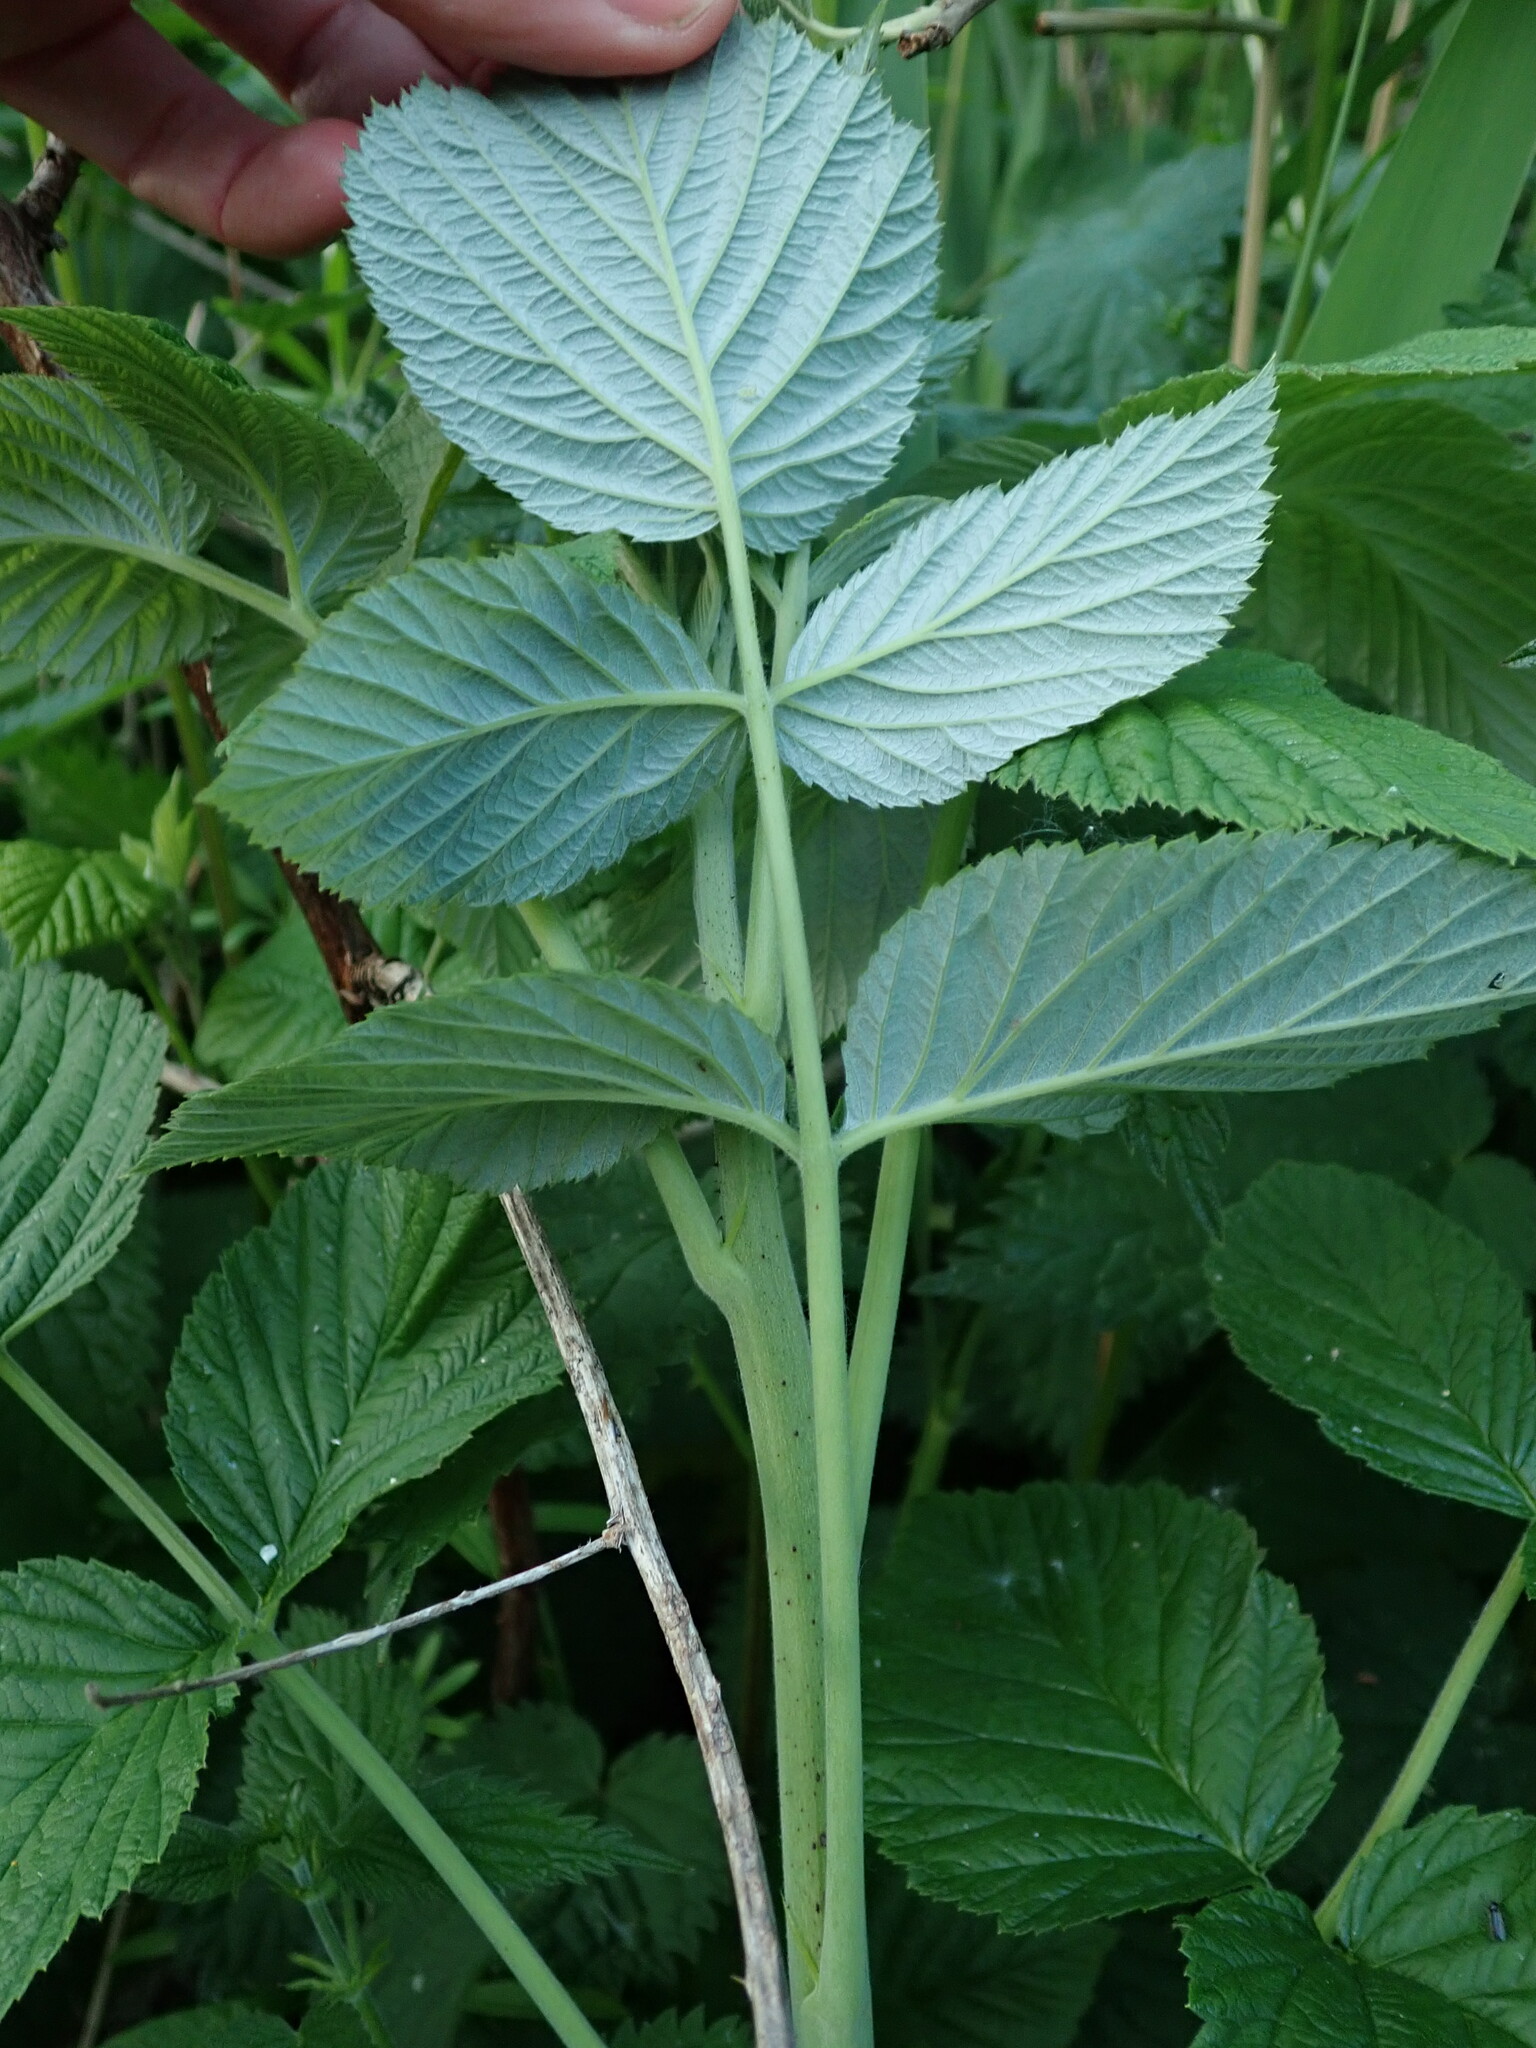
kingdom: Plantae
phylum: Tracheophyta
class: Magnoliopsida
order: Rosales
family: Rosaceae
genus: Rubus
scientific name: Rubus idaeus
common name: Raspberry
